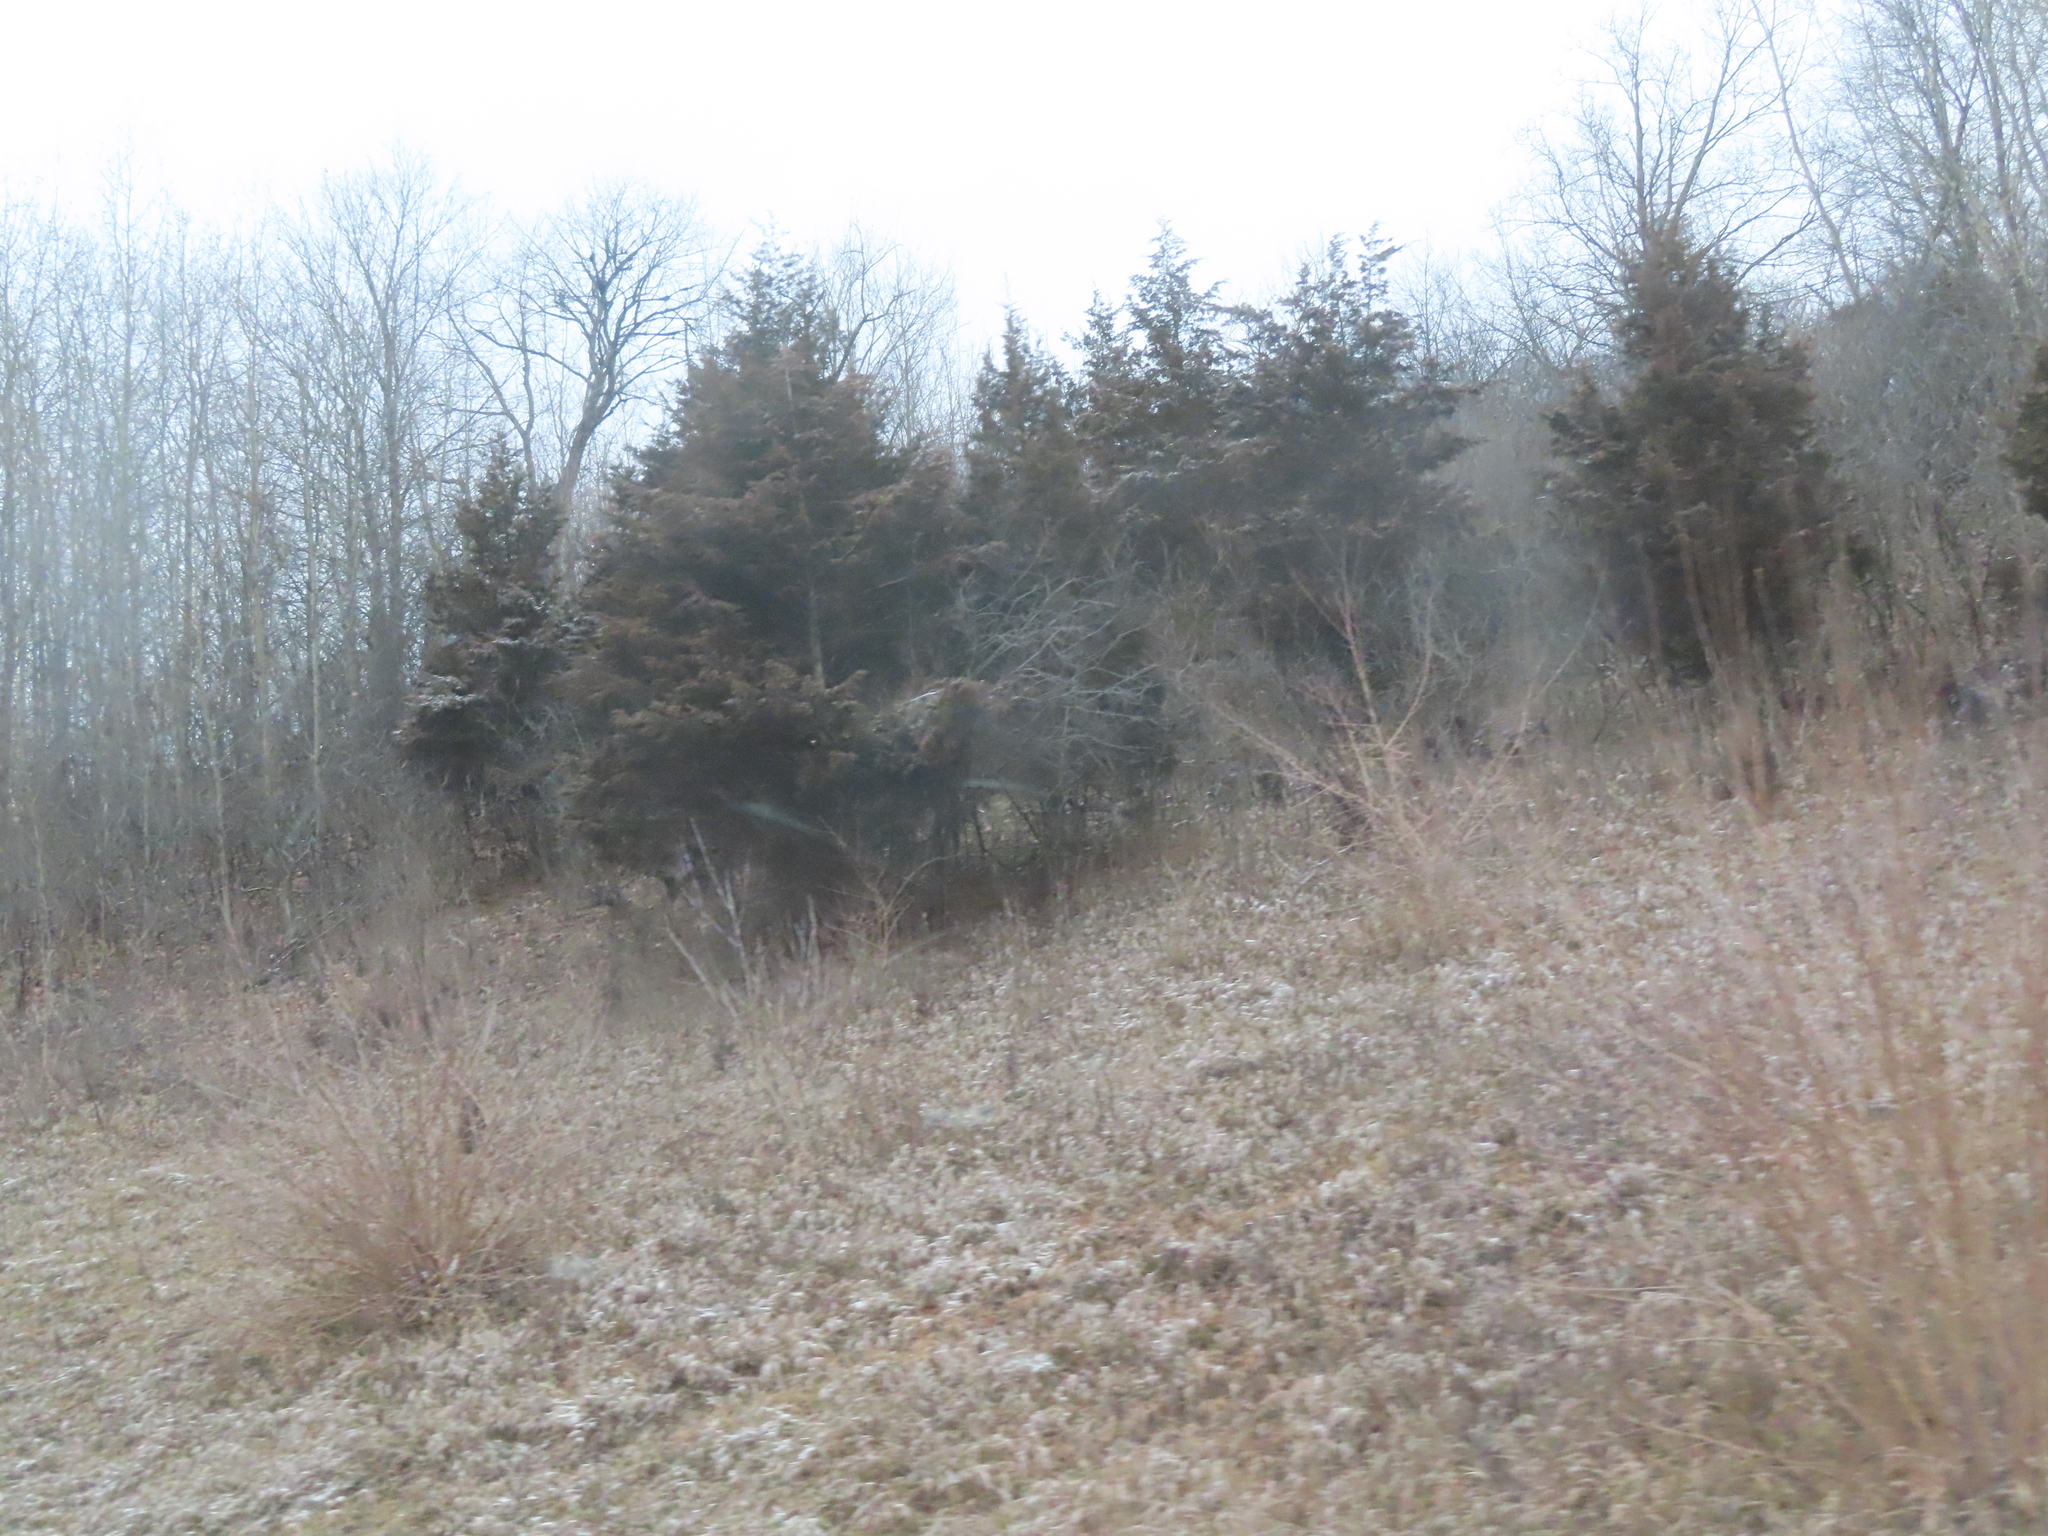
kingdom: Plantae
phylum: Tracheophyta
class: Pinopsida
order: Pinales
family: Cupressaceae
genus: Juniperus
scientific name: Juniperus virginiana
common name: Red juniper
